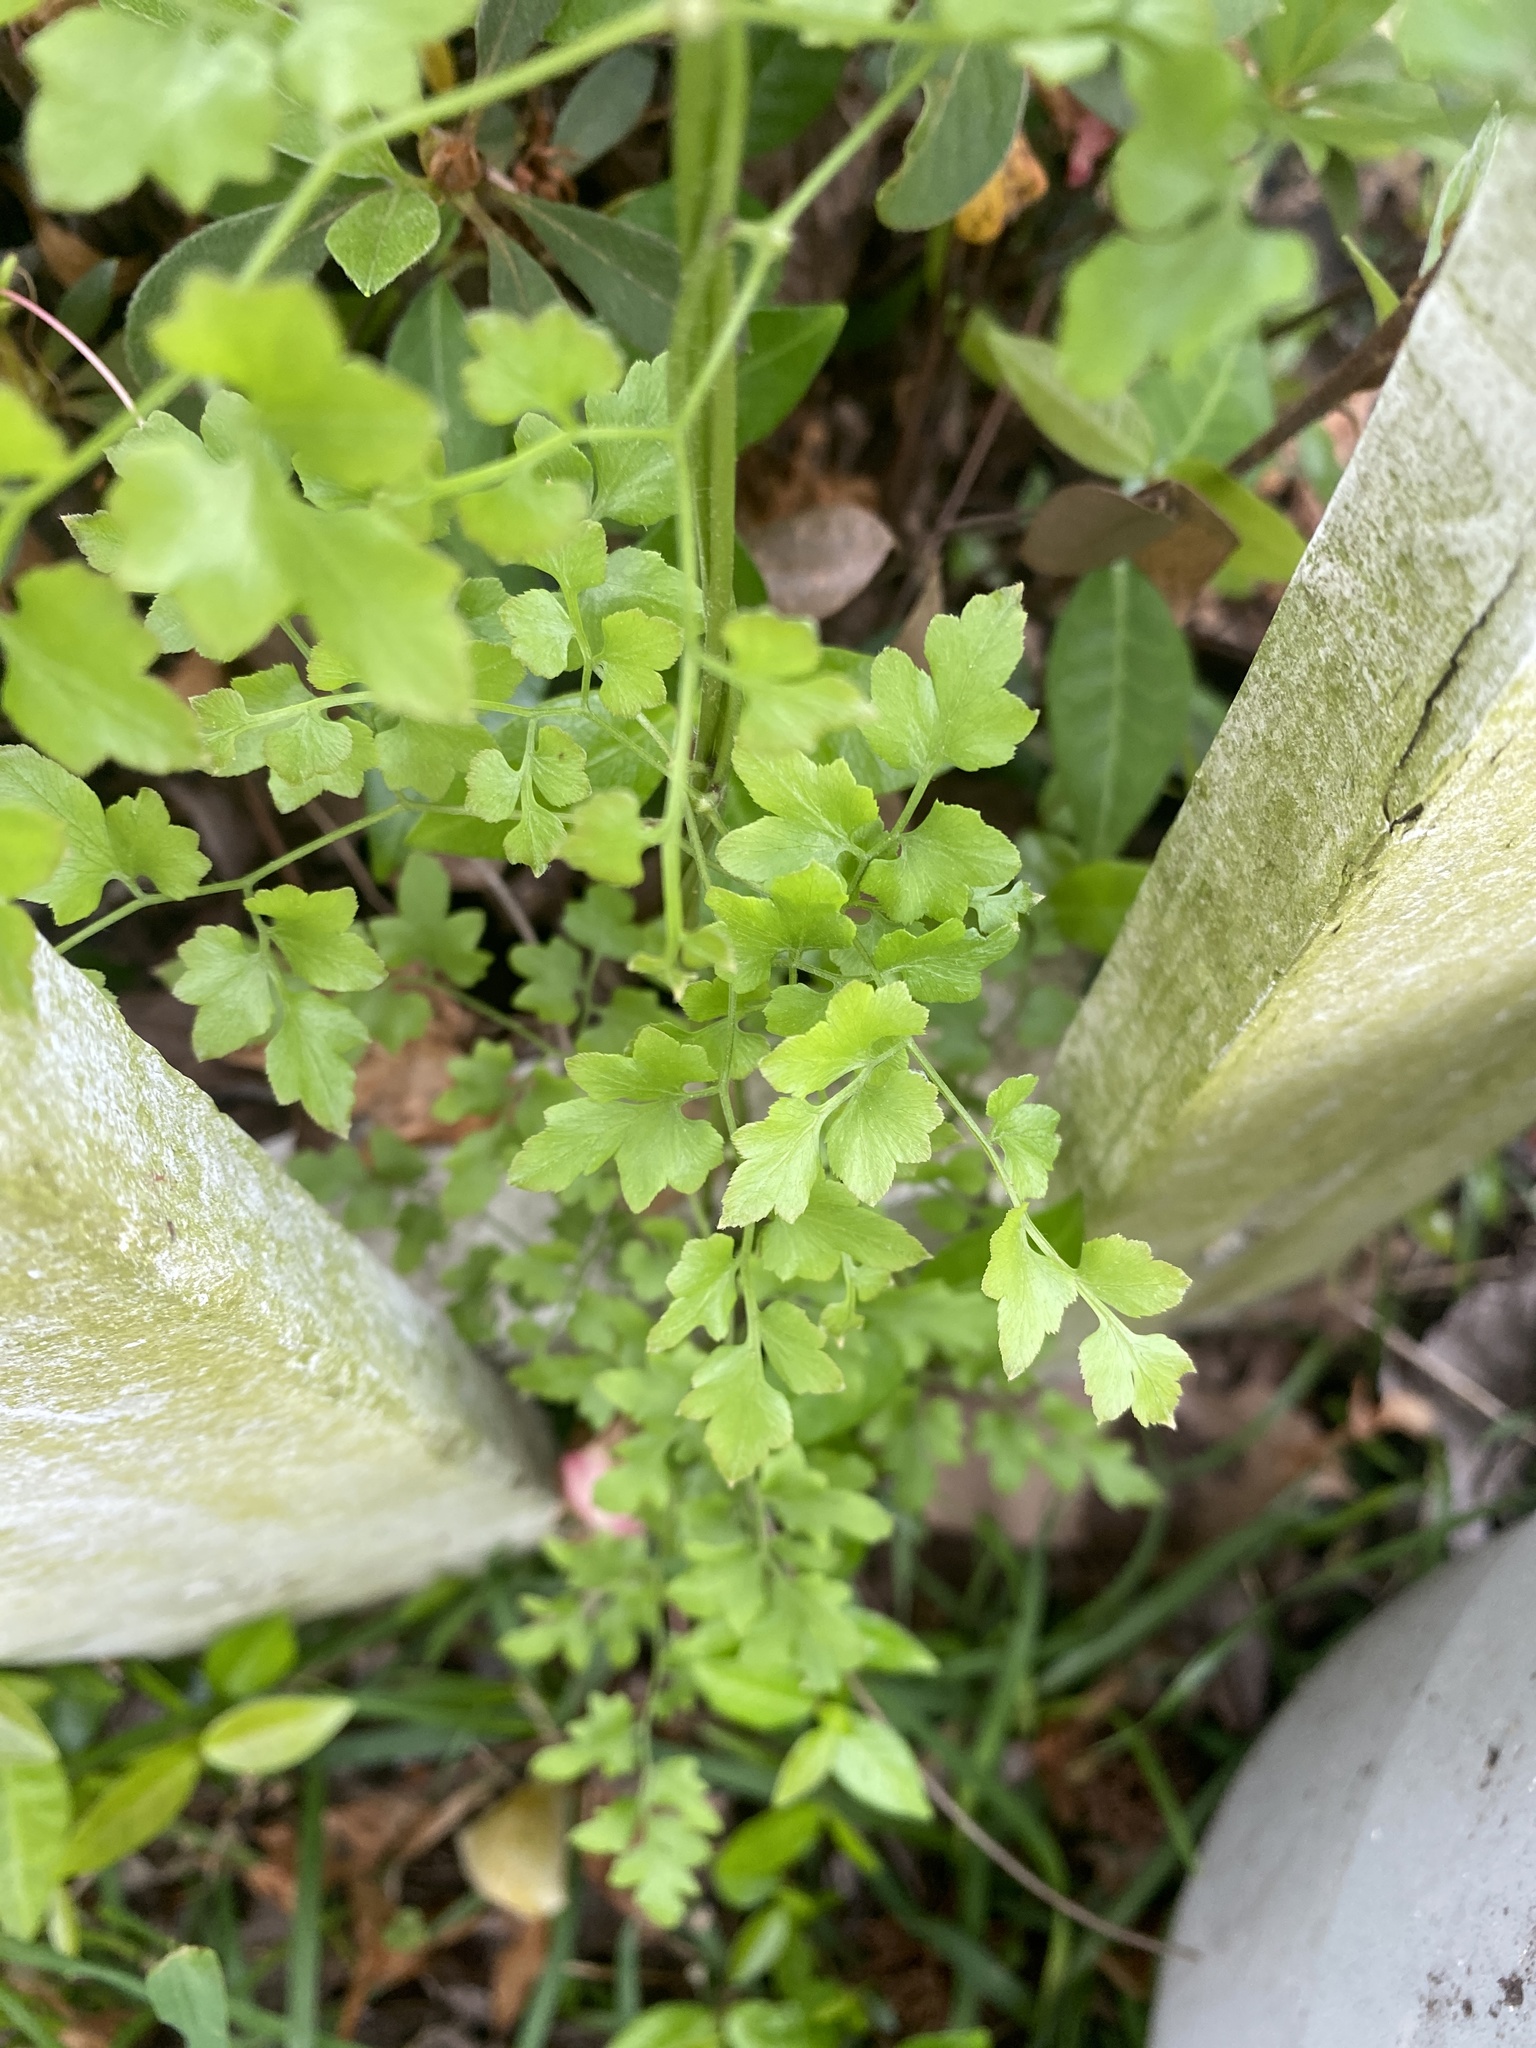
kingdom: Plantae
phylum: Tracheophyta
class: Polypodiopsida
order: Schizaeales
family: Lygodiaceae
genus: Lygodium
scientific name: Lygodium japonicum
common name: Japanese climbing fern
